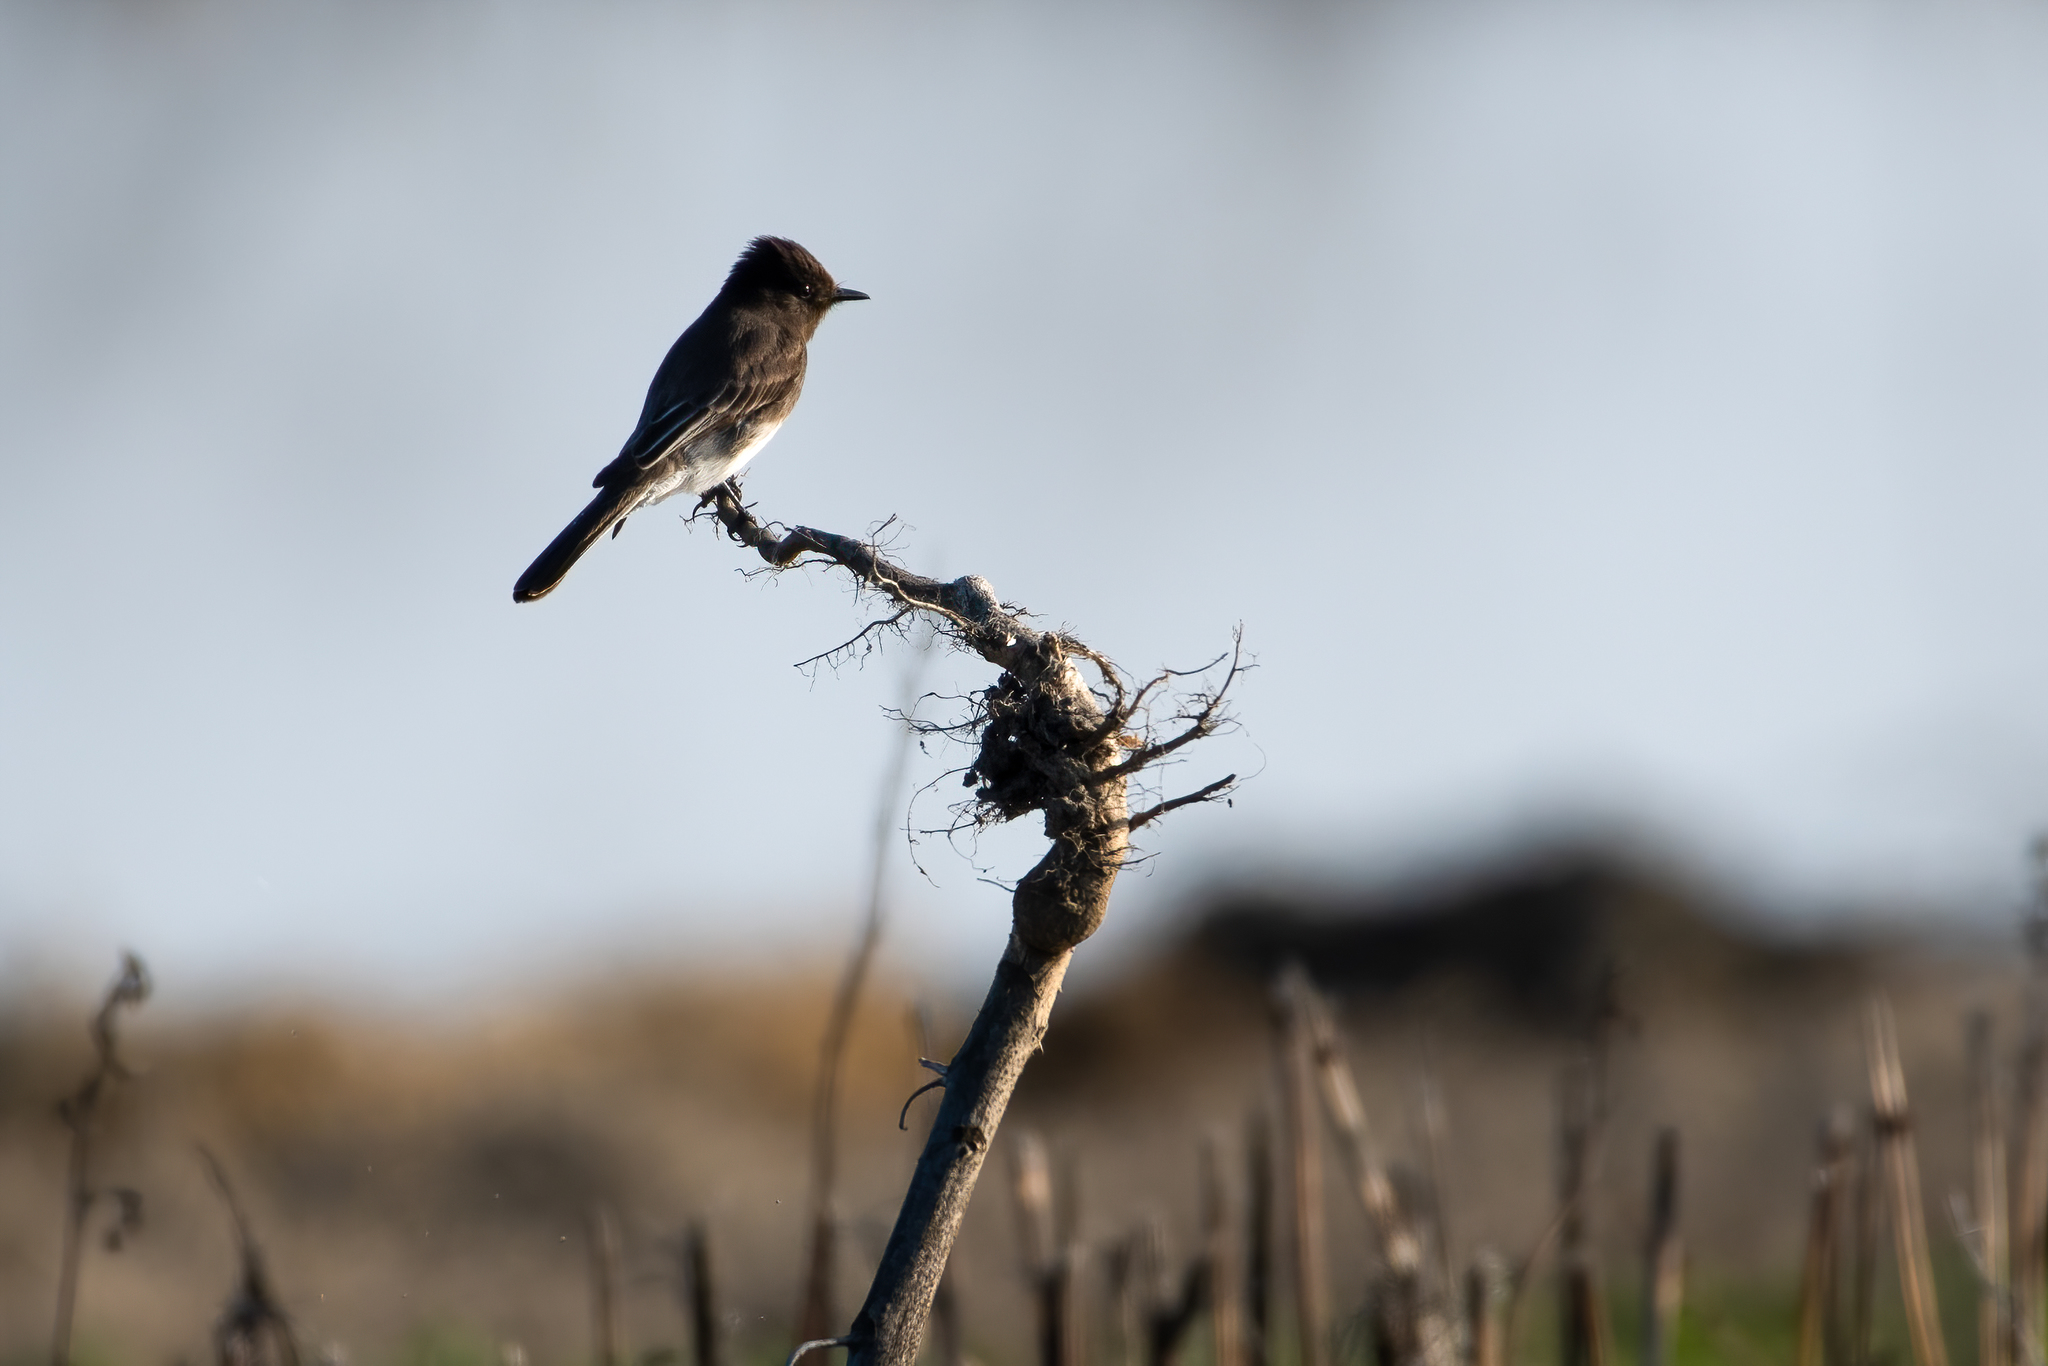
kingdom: Animalia
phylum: Chordata
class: Aves
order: Passeriformes
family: Tyrannidae
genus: Sayornis
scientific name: Sayornis nigricans
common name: Black phoebe
